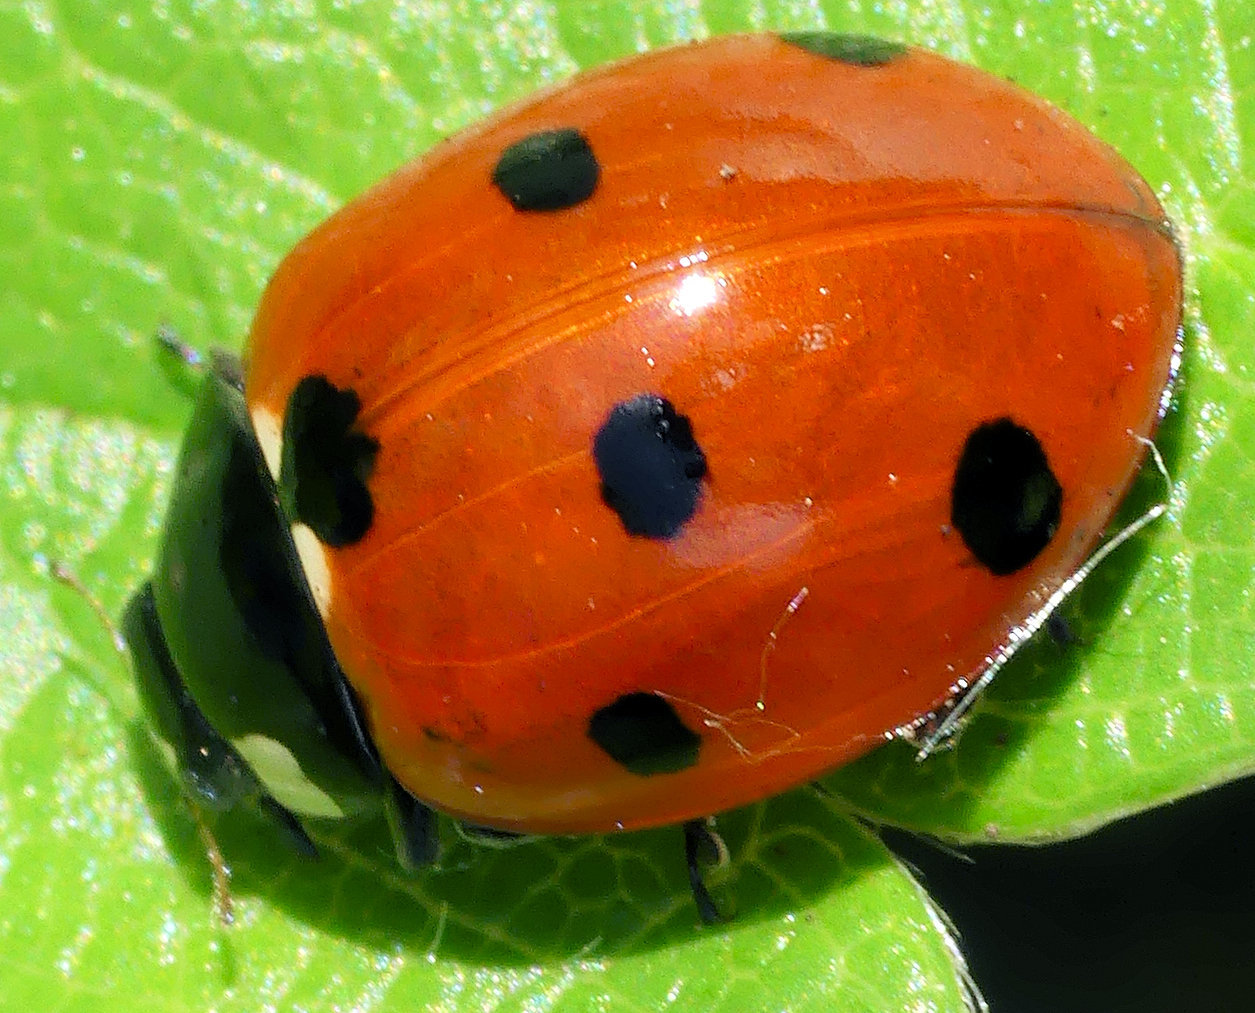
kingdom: Animalia
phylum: Arthropoda
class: Insecta
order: Coleoptera
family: Coccinellidae
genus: Coccinella
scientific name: Coccinella septempunctata
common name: Sevenspotted lady beetle
